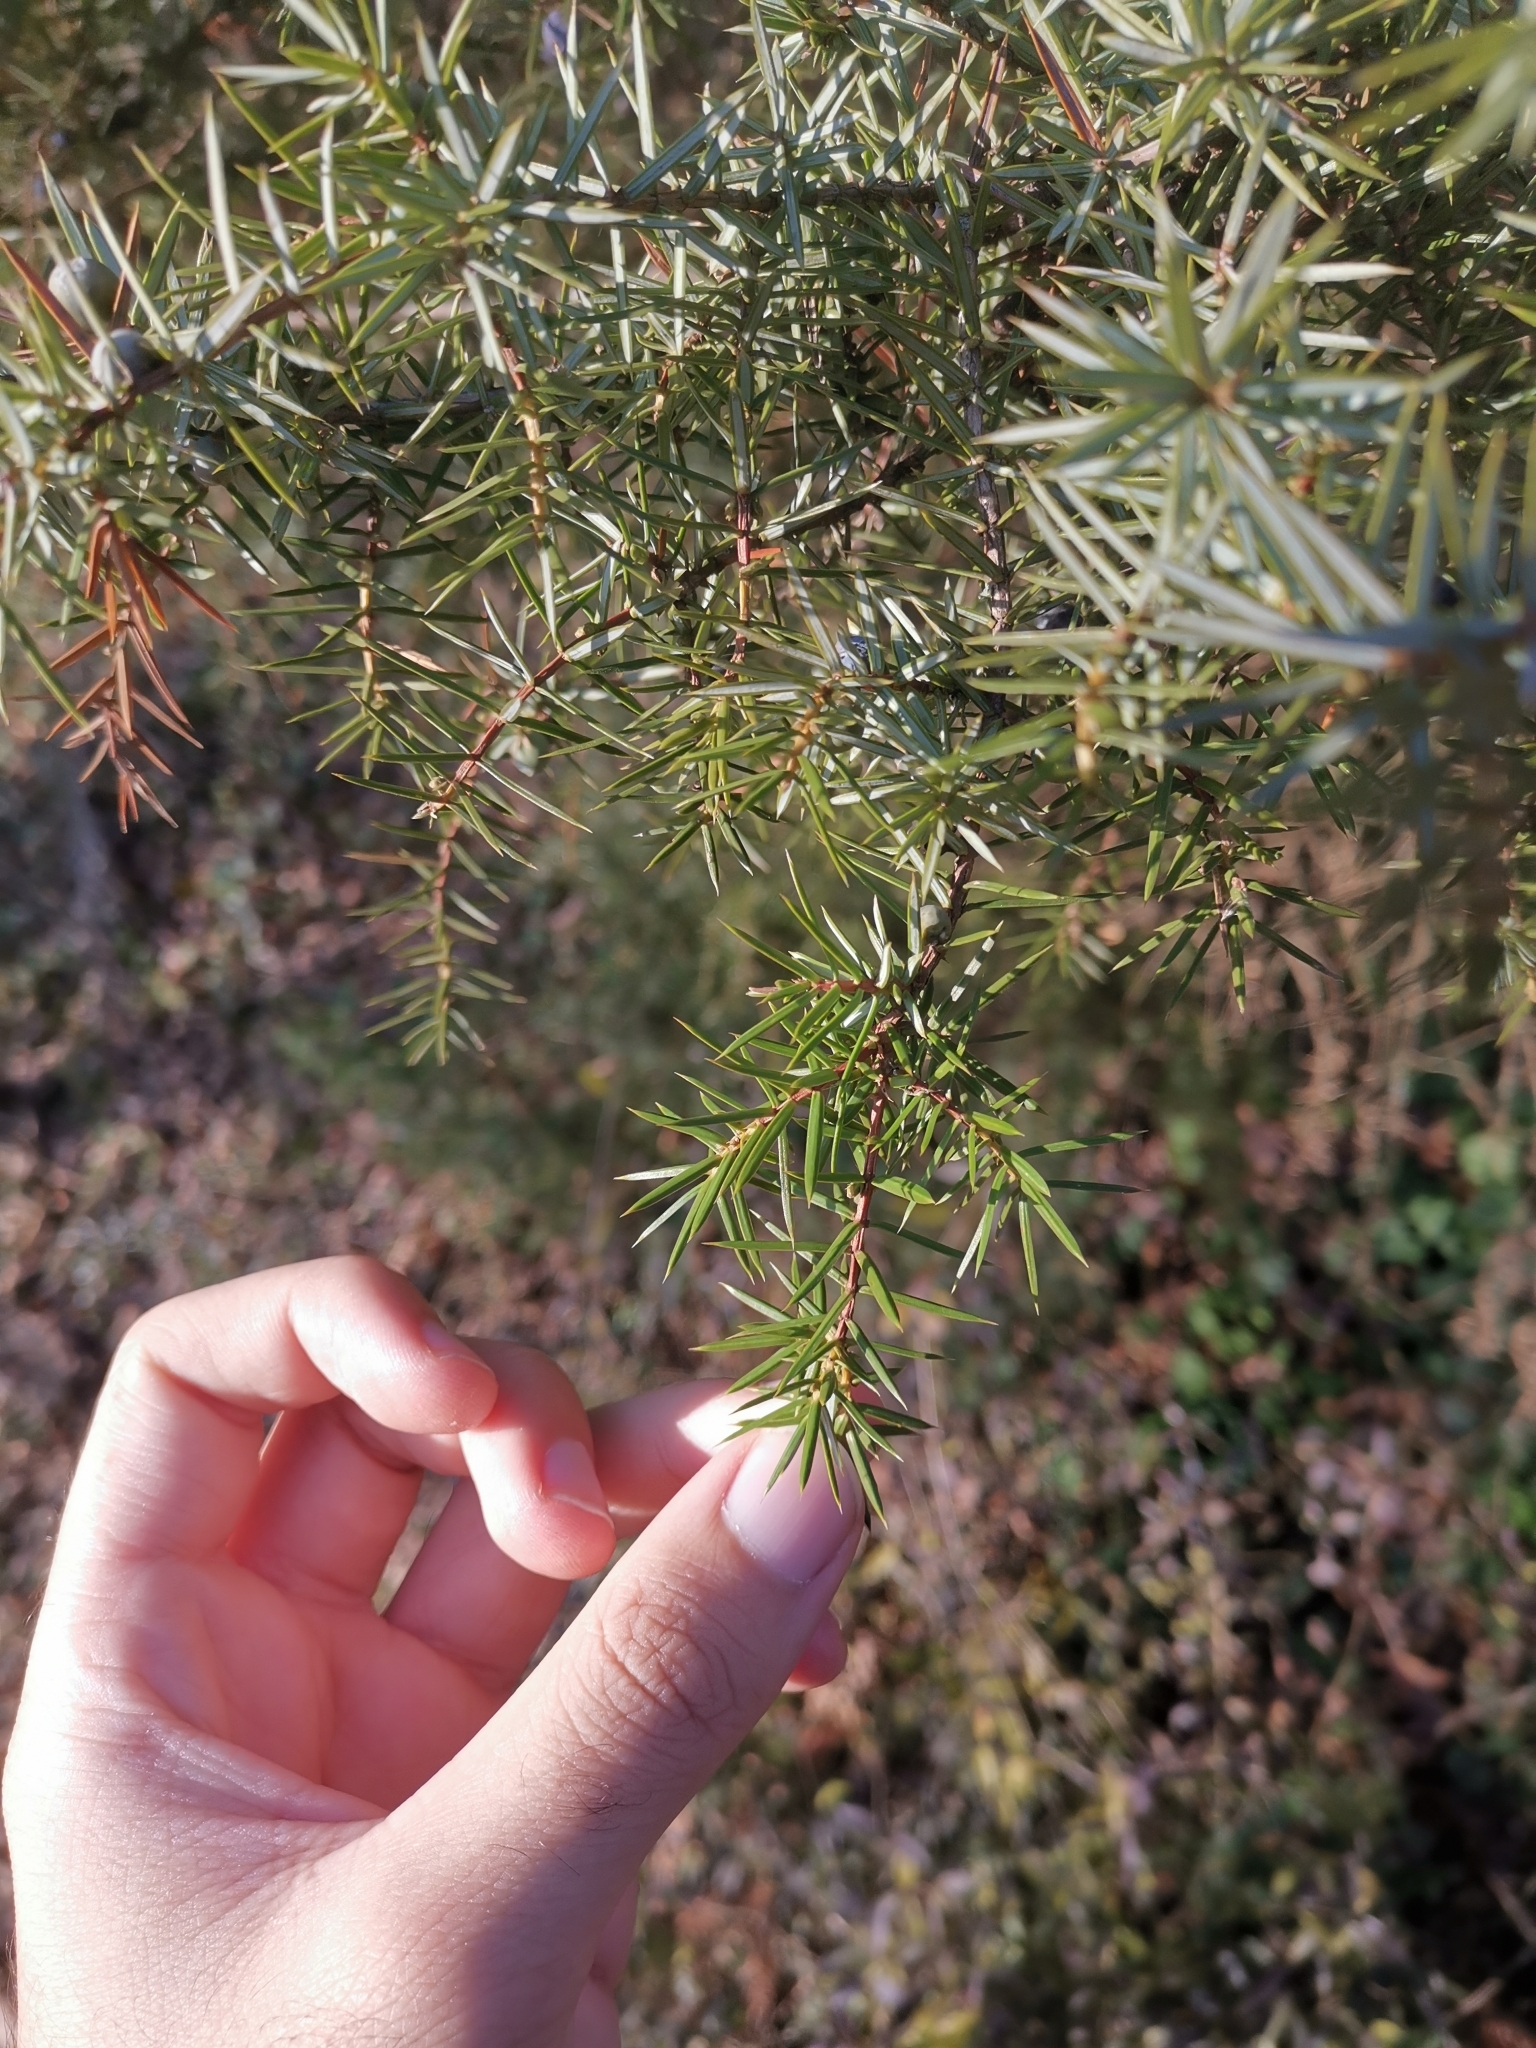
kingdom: Plantae
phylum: Tracheophyta
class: Pinopsida
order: Pinales
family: Cupressaceae
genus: Juniperus
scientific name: Juniperus communis
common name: Common juniper
